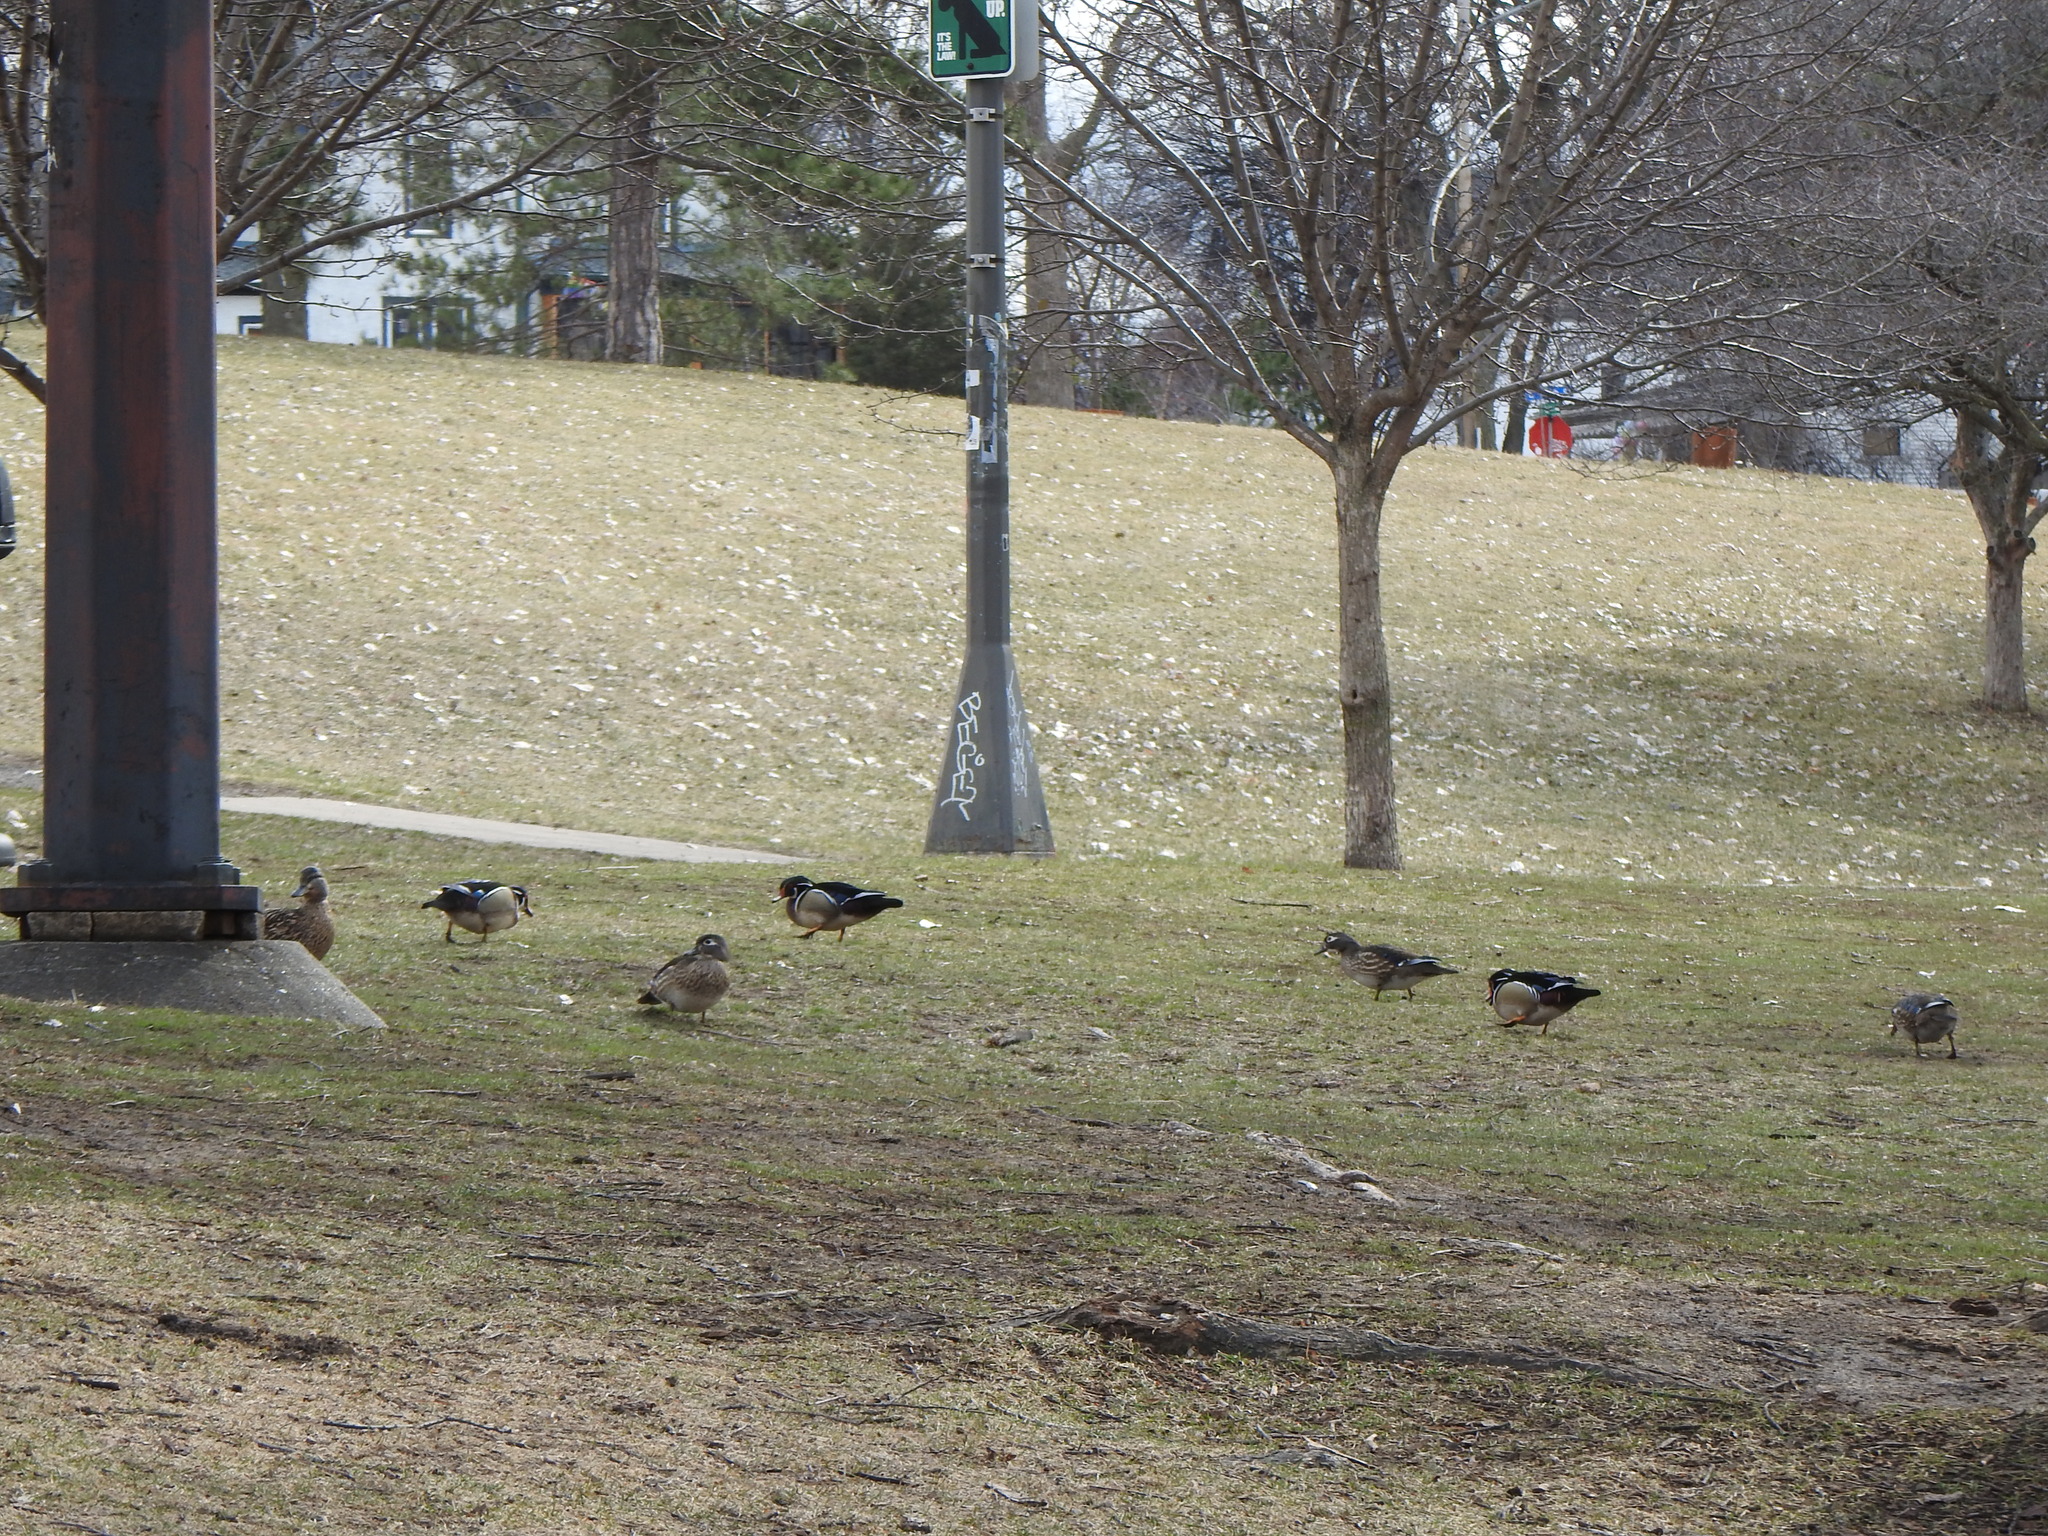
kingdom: Animalia
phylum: Chordata
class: Aves
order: Anseriformes
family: Anatidae
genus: Aix
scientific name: Aix sponsa
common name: Wood duck
